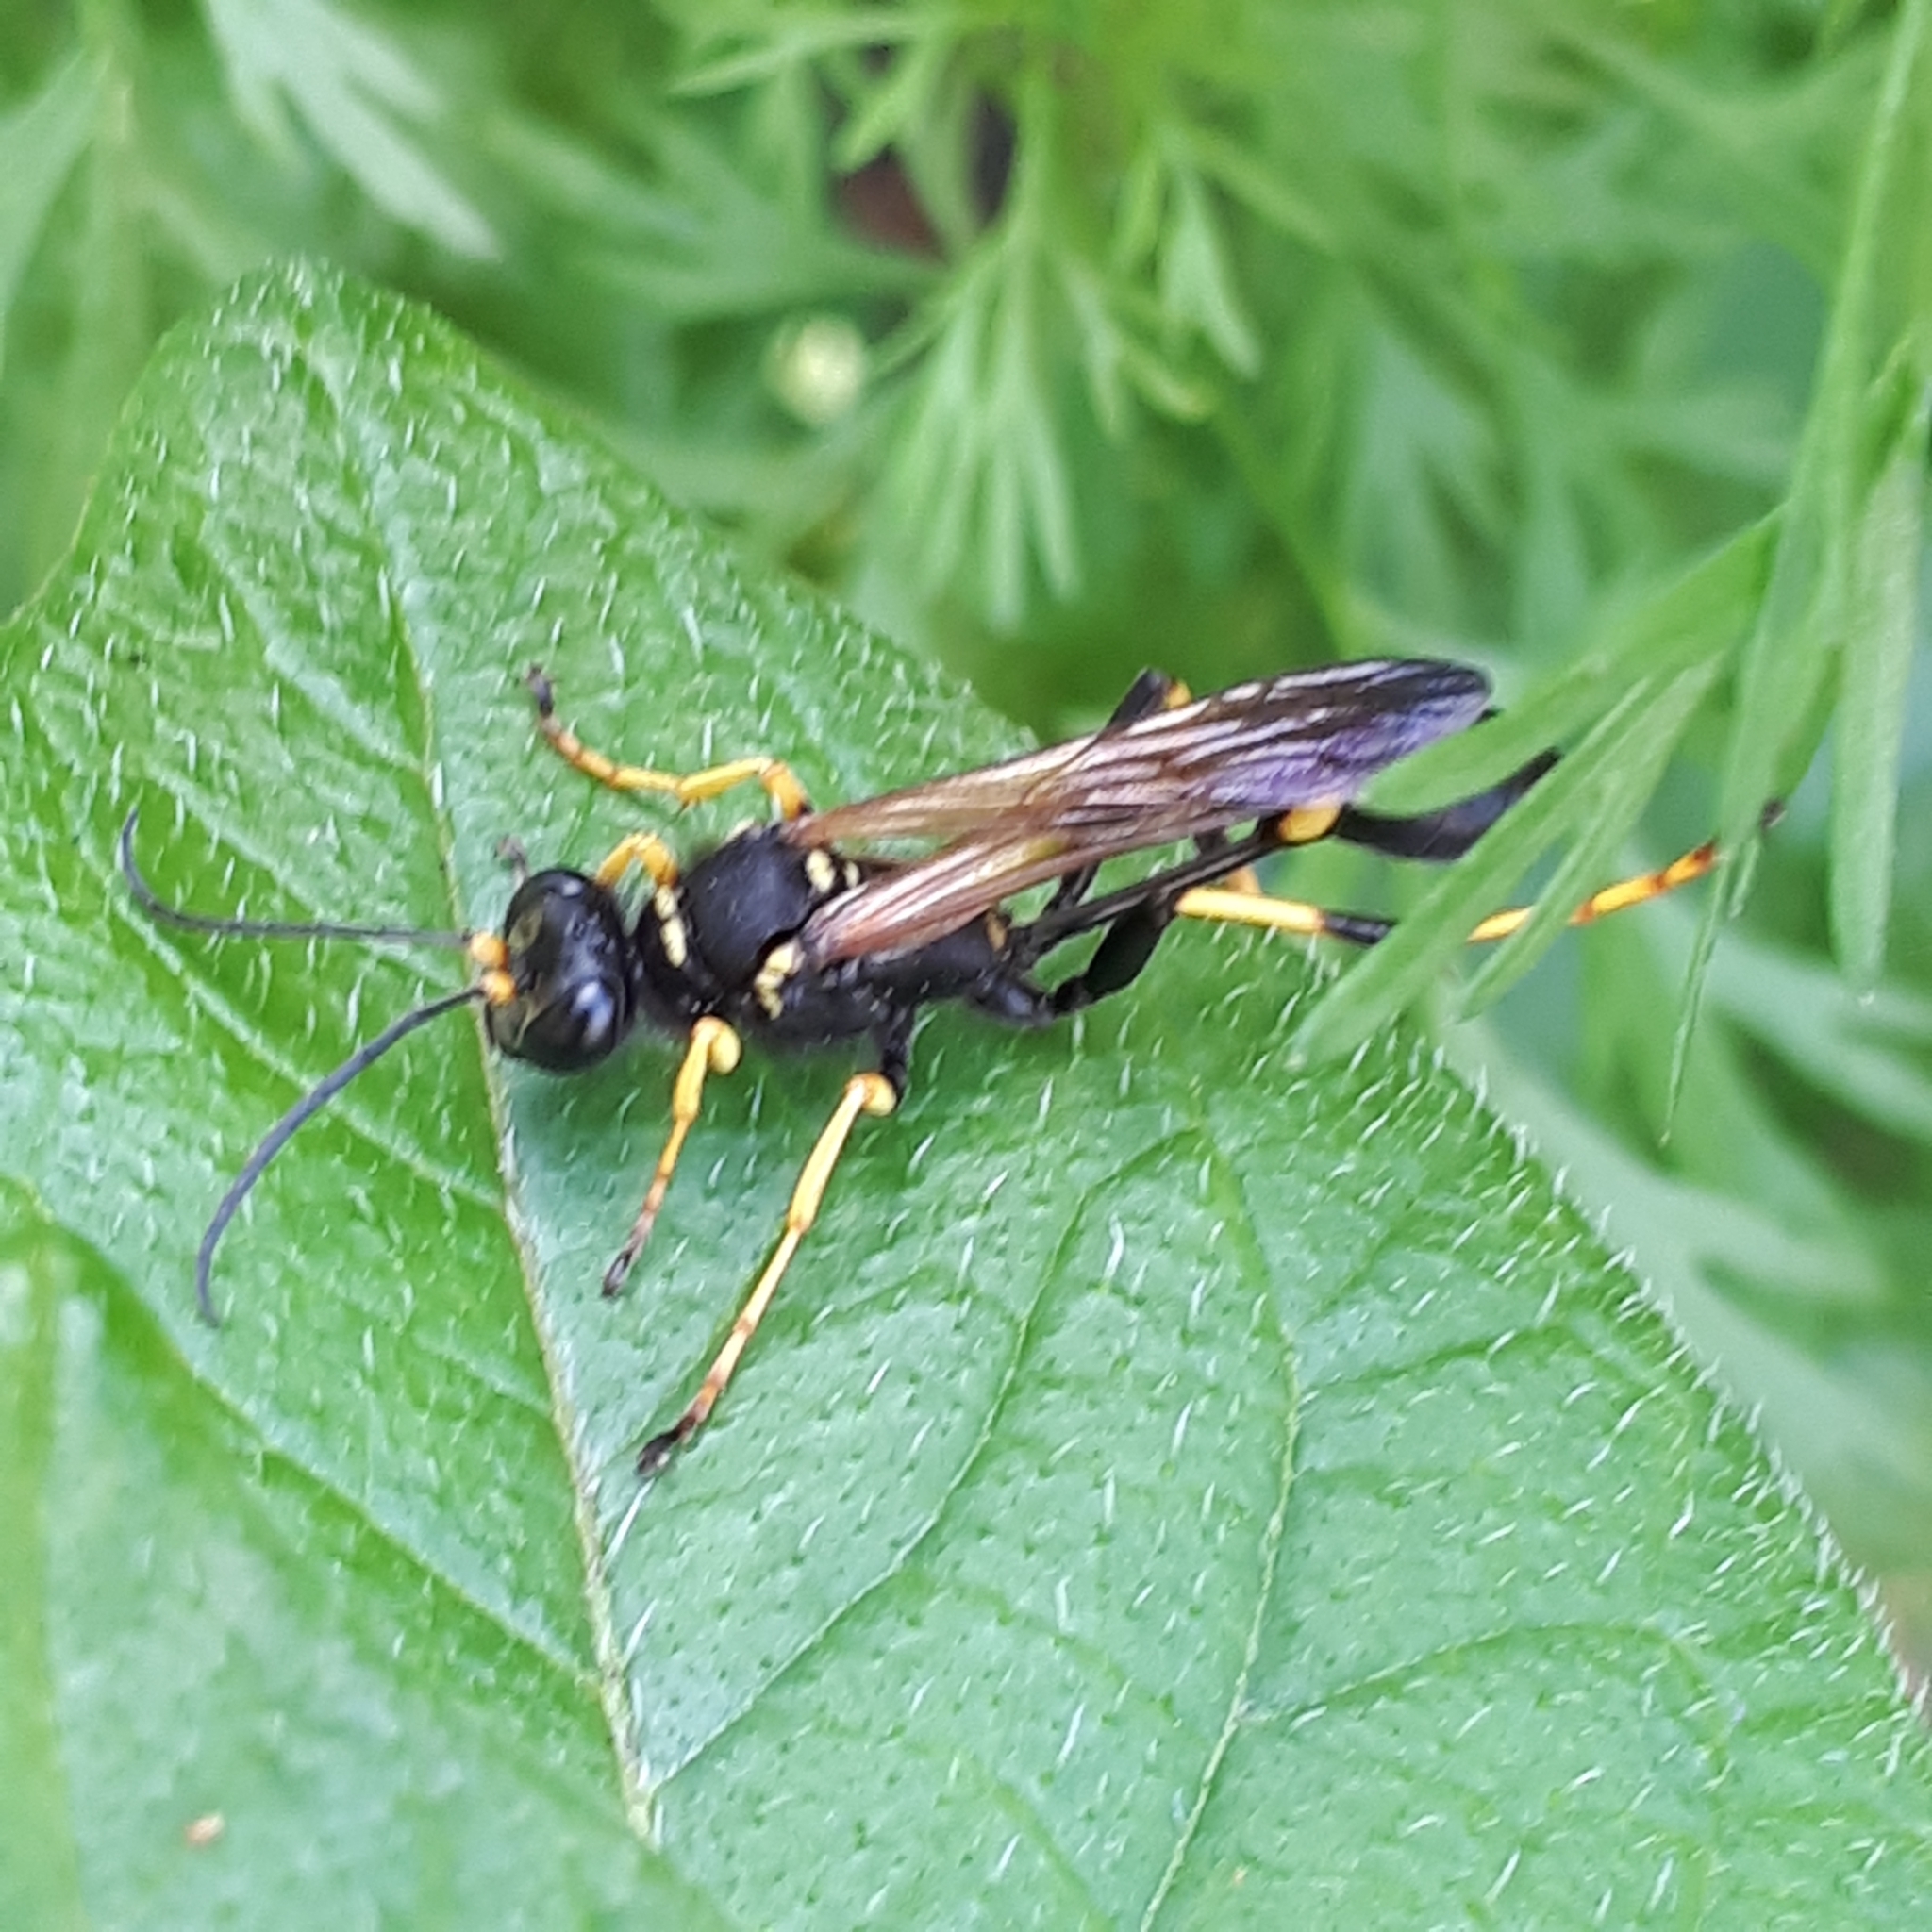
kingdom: Animalia
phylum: Arthropoda
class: Insecta
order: Hymenoptera
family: Sphecidae
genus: Sceliphron
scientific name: Sceliphron caementarium
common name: Mud dauber
